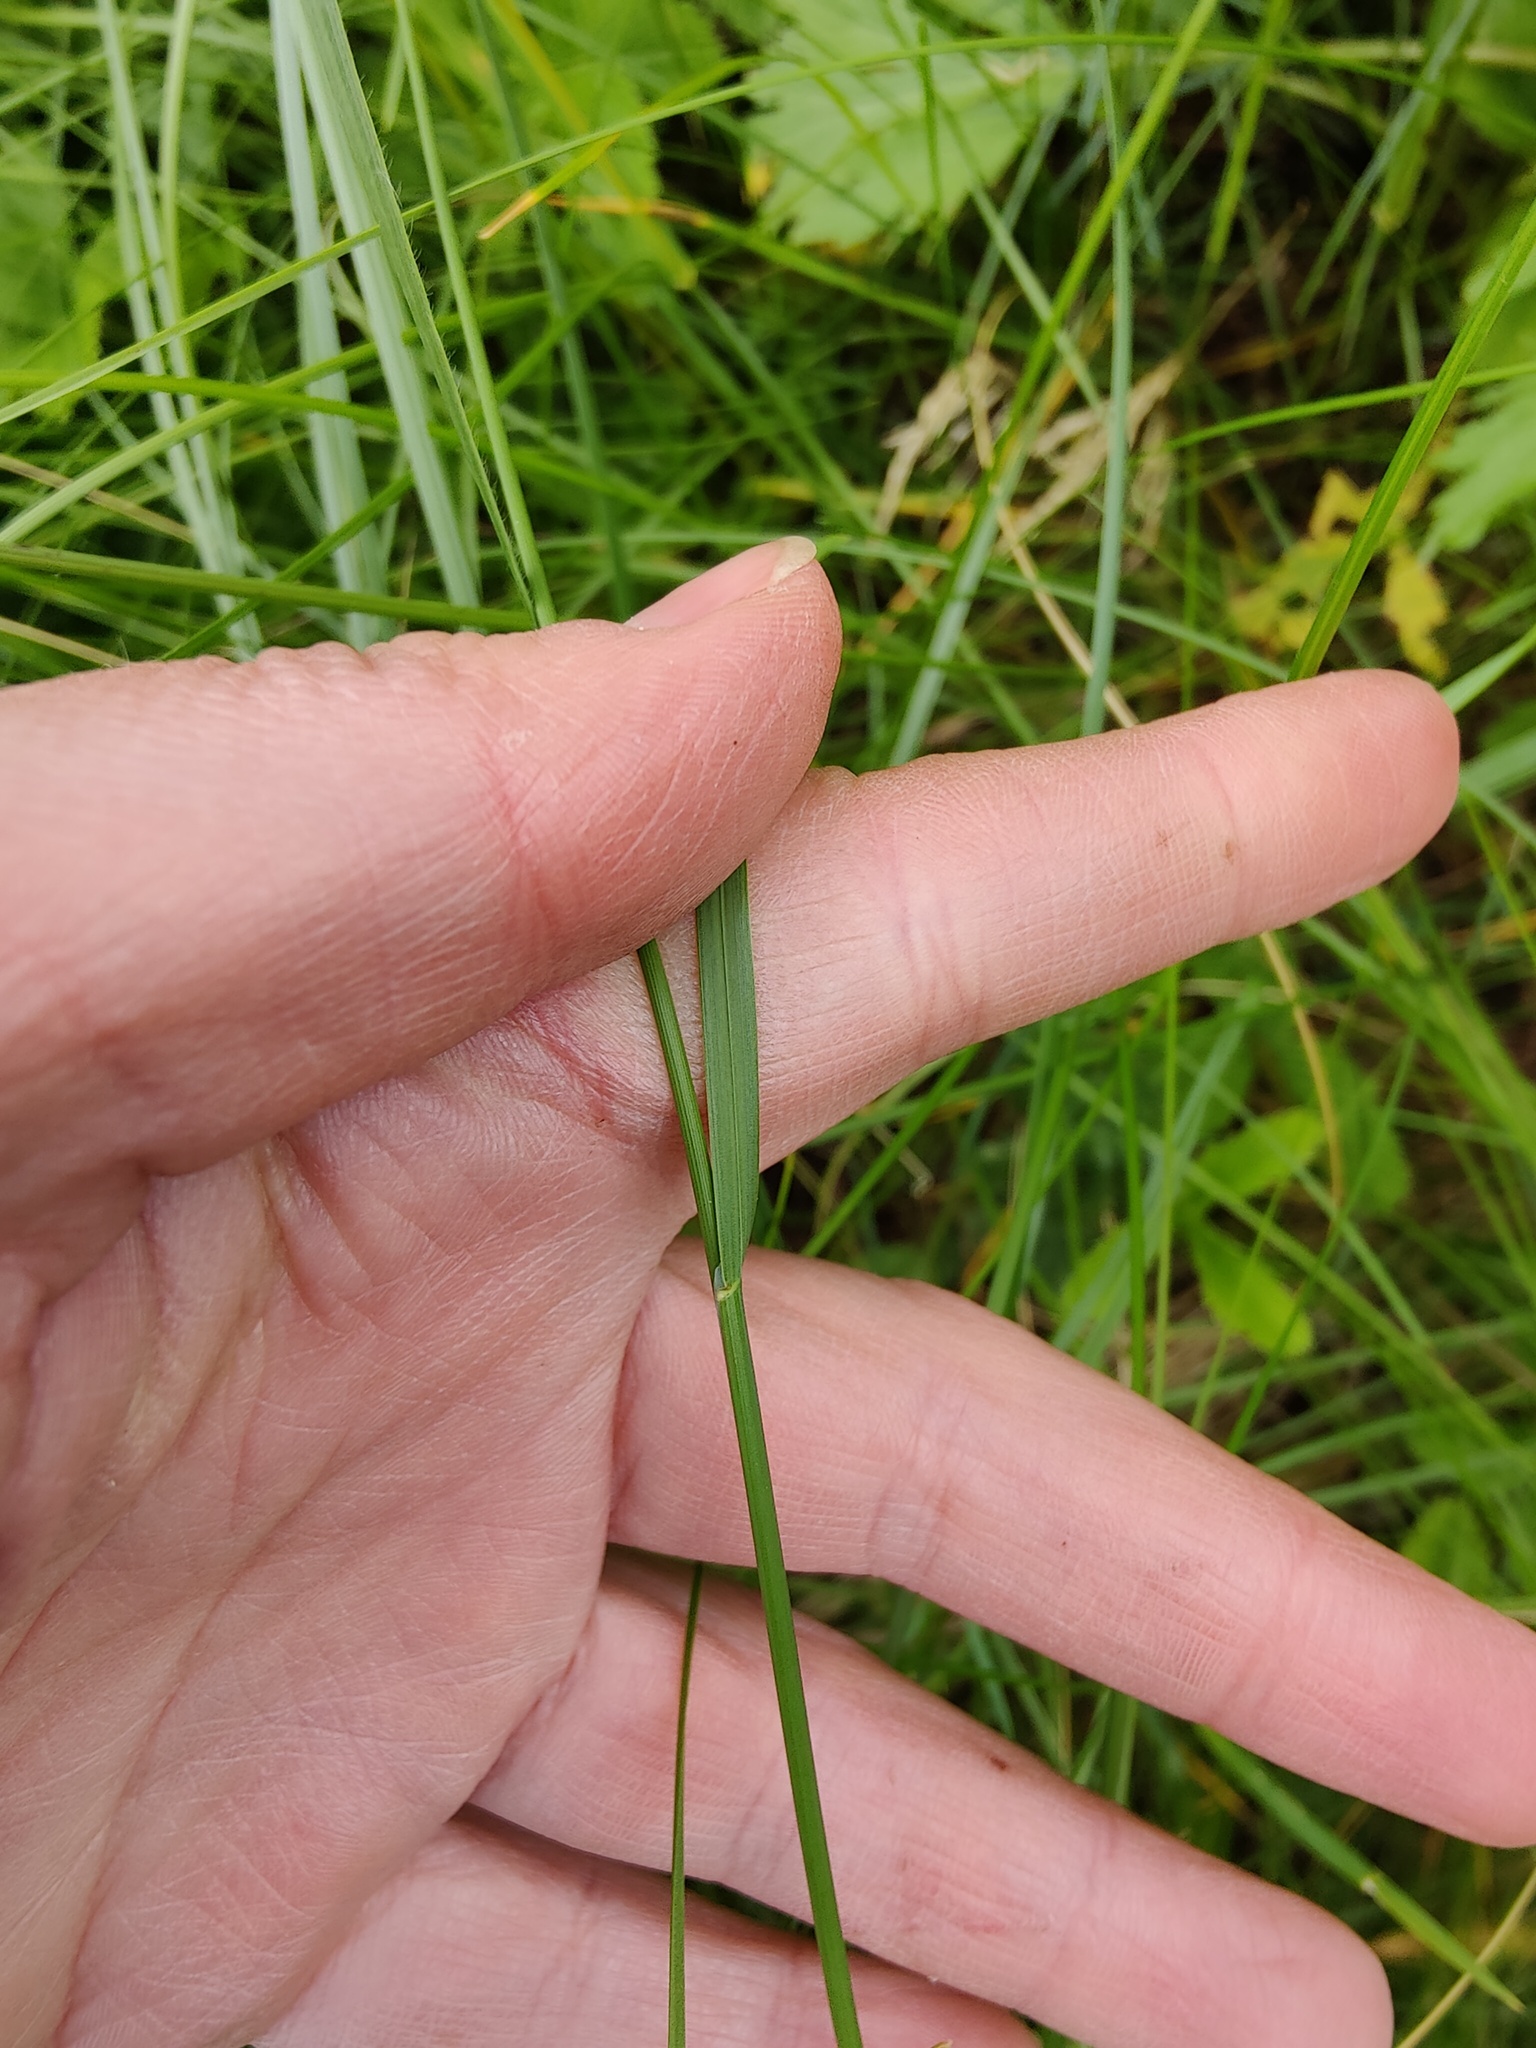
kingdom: Plantae
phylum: Tracheophyta
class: Liliopsida
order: Poales
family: Poaceae
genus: Poa
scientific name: Poa angustifolia
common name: Narrow-leaved meadow-grass
